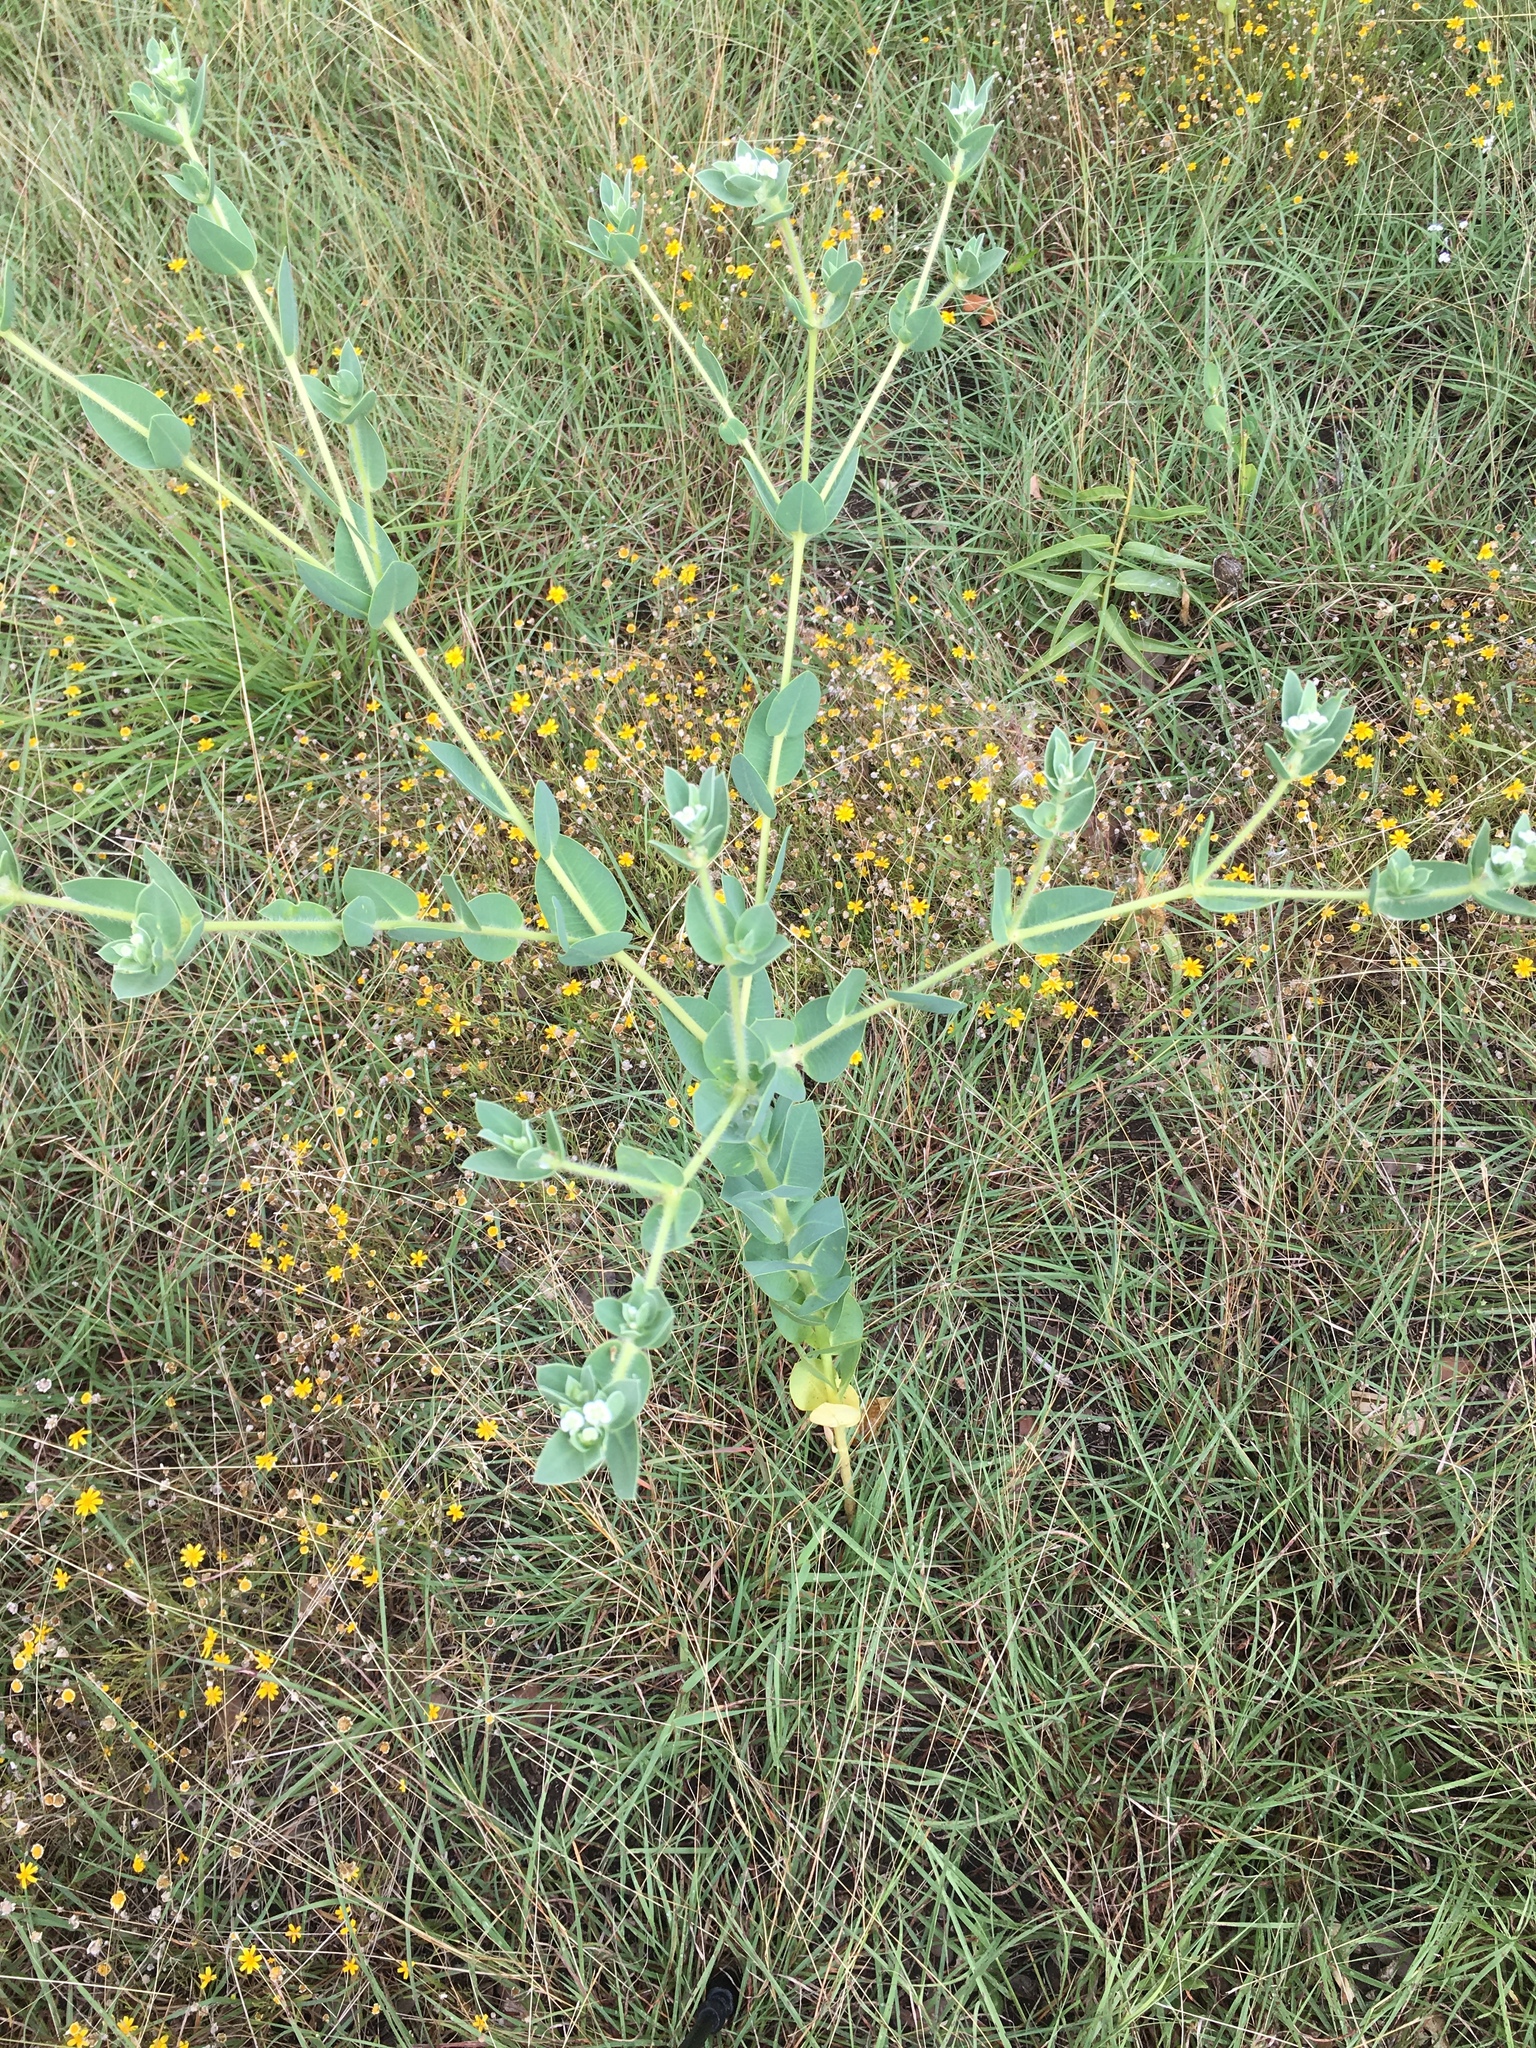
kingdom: Plantae
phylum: Tracheophyta
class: Magnoliopsida
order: Malpighiales
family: Euphorbiaceae
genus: Euphorbia
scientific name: Euphorbia marginata
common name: Ghostweed
